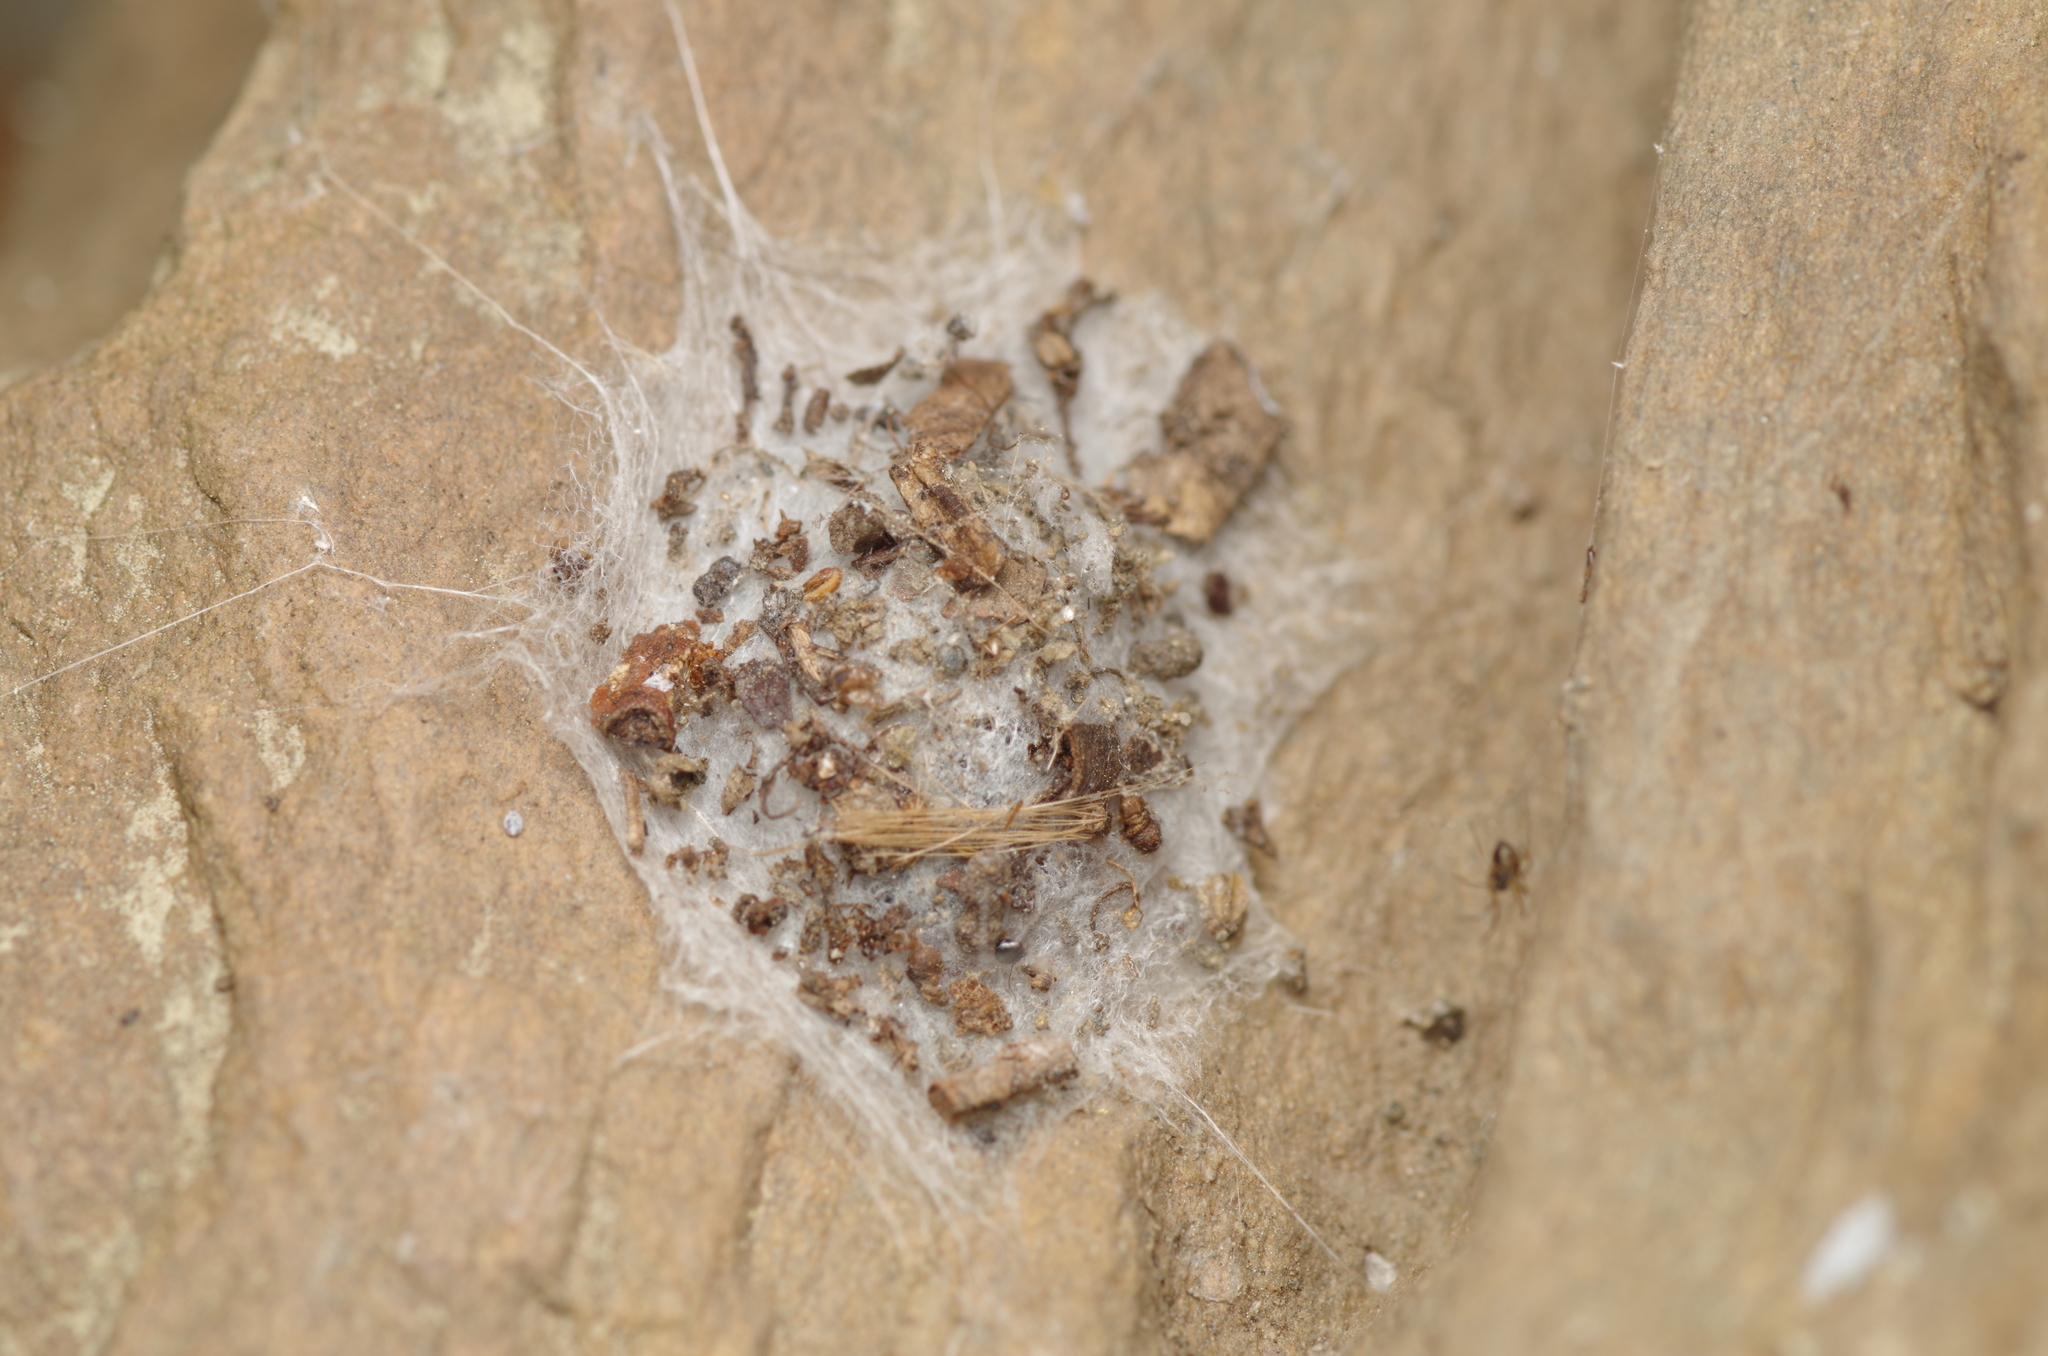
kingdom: Animalia
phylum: Arthropoda
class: Arachnida
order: Araneae
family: Oecobiidae
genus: Uroctea
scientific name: Uroctea durandi
